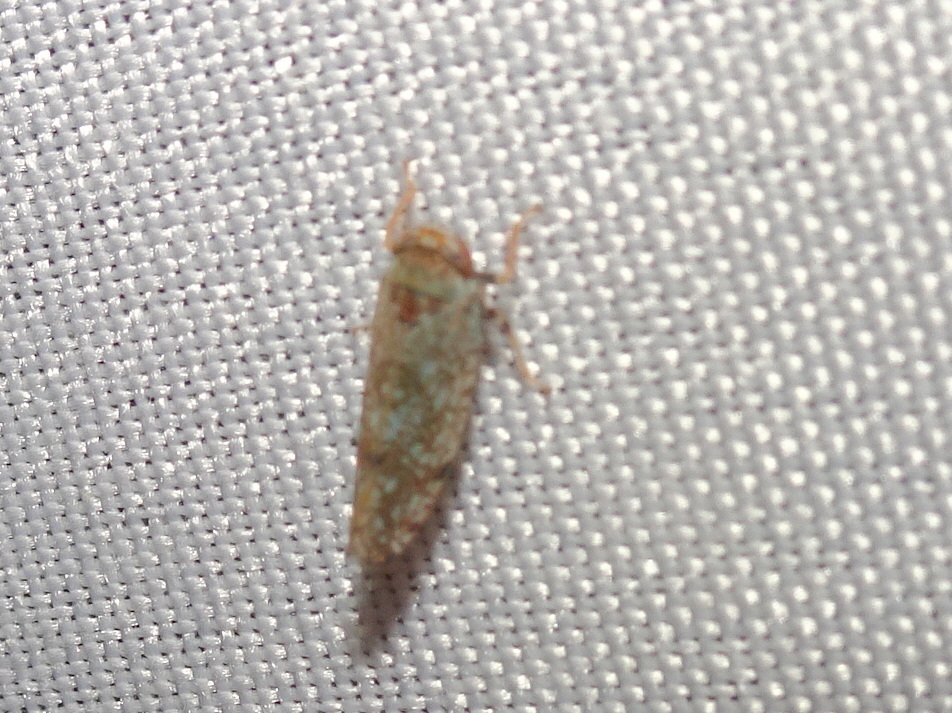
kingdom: Animalia
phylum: Arthropoda
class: Insecta
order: Hemiptera
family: Cicadellidae
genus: Orientus
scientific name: Orientus ishidae
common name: Japanese leafhopper
